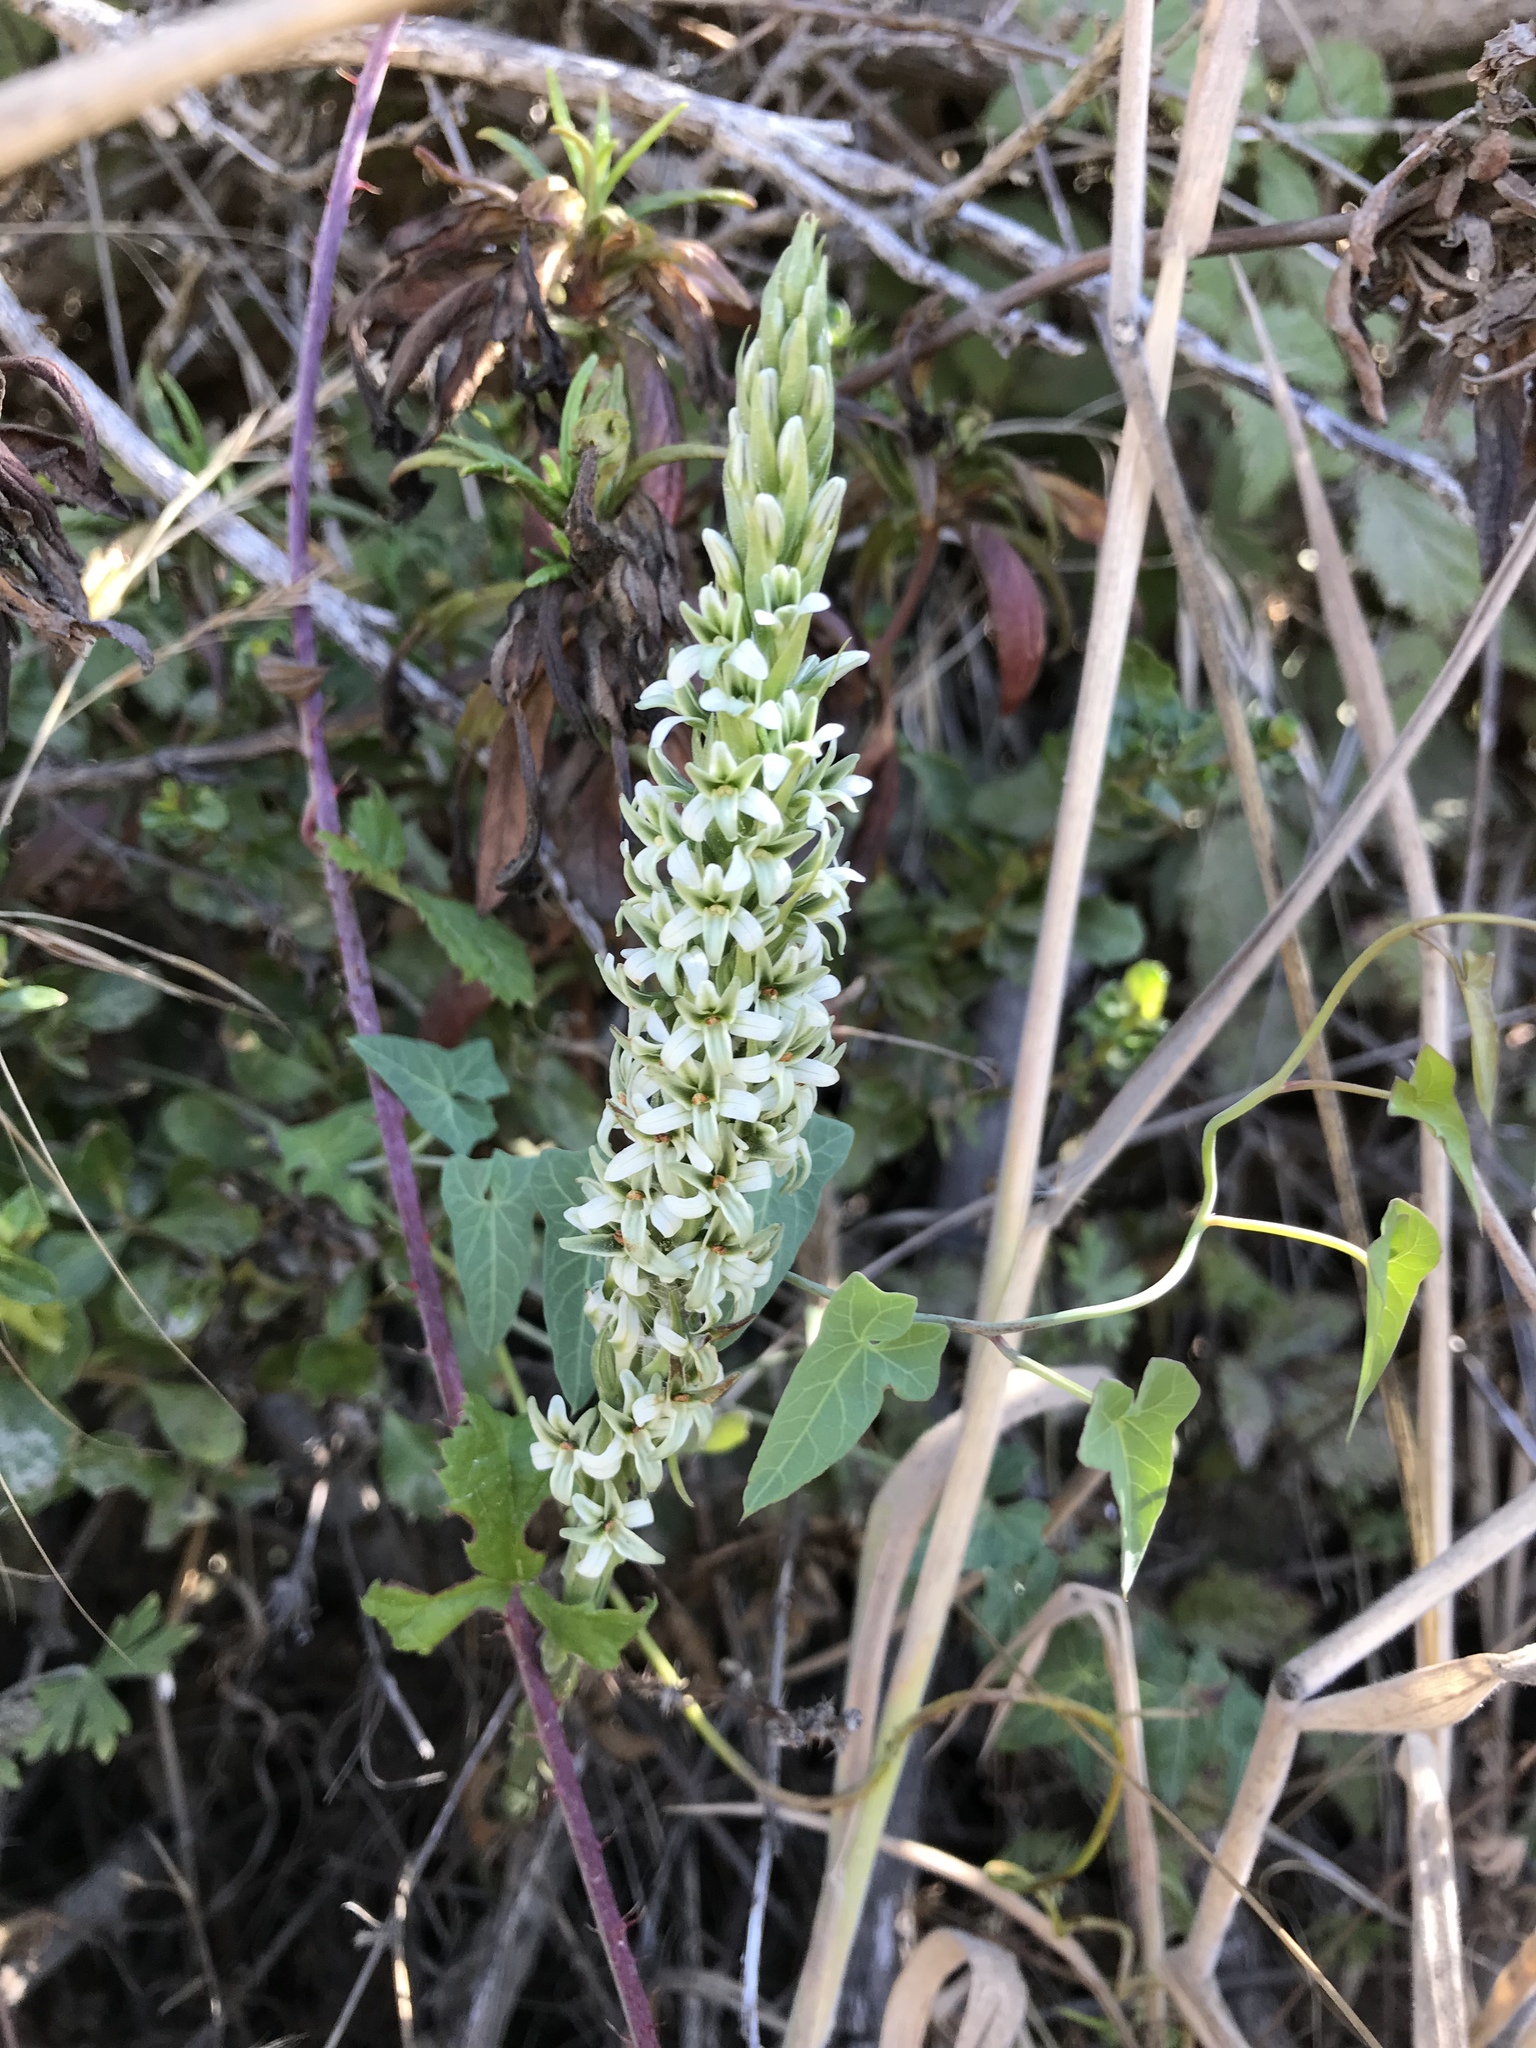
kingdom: Plantae
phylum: Tracheophyta
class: Liliopsida
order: Asparagales
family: Orchidaceae
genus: Platanthera
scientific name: Platanthera elegans
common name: Coast piperia
